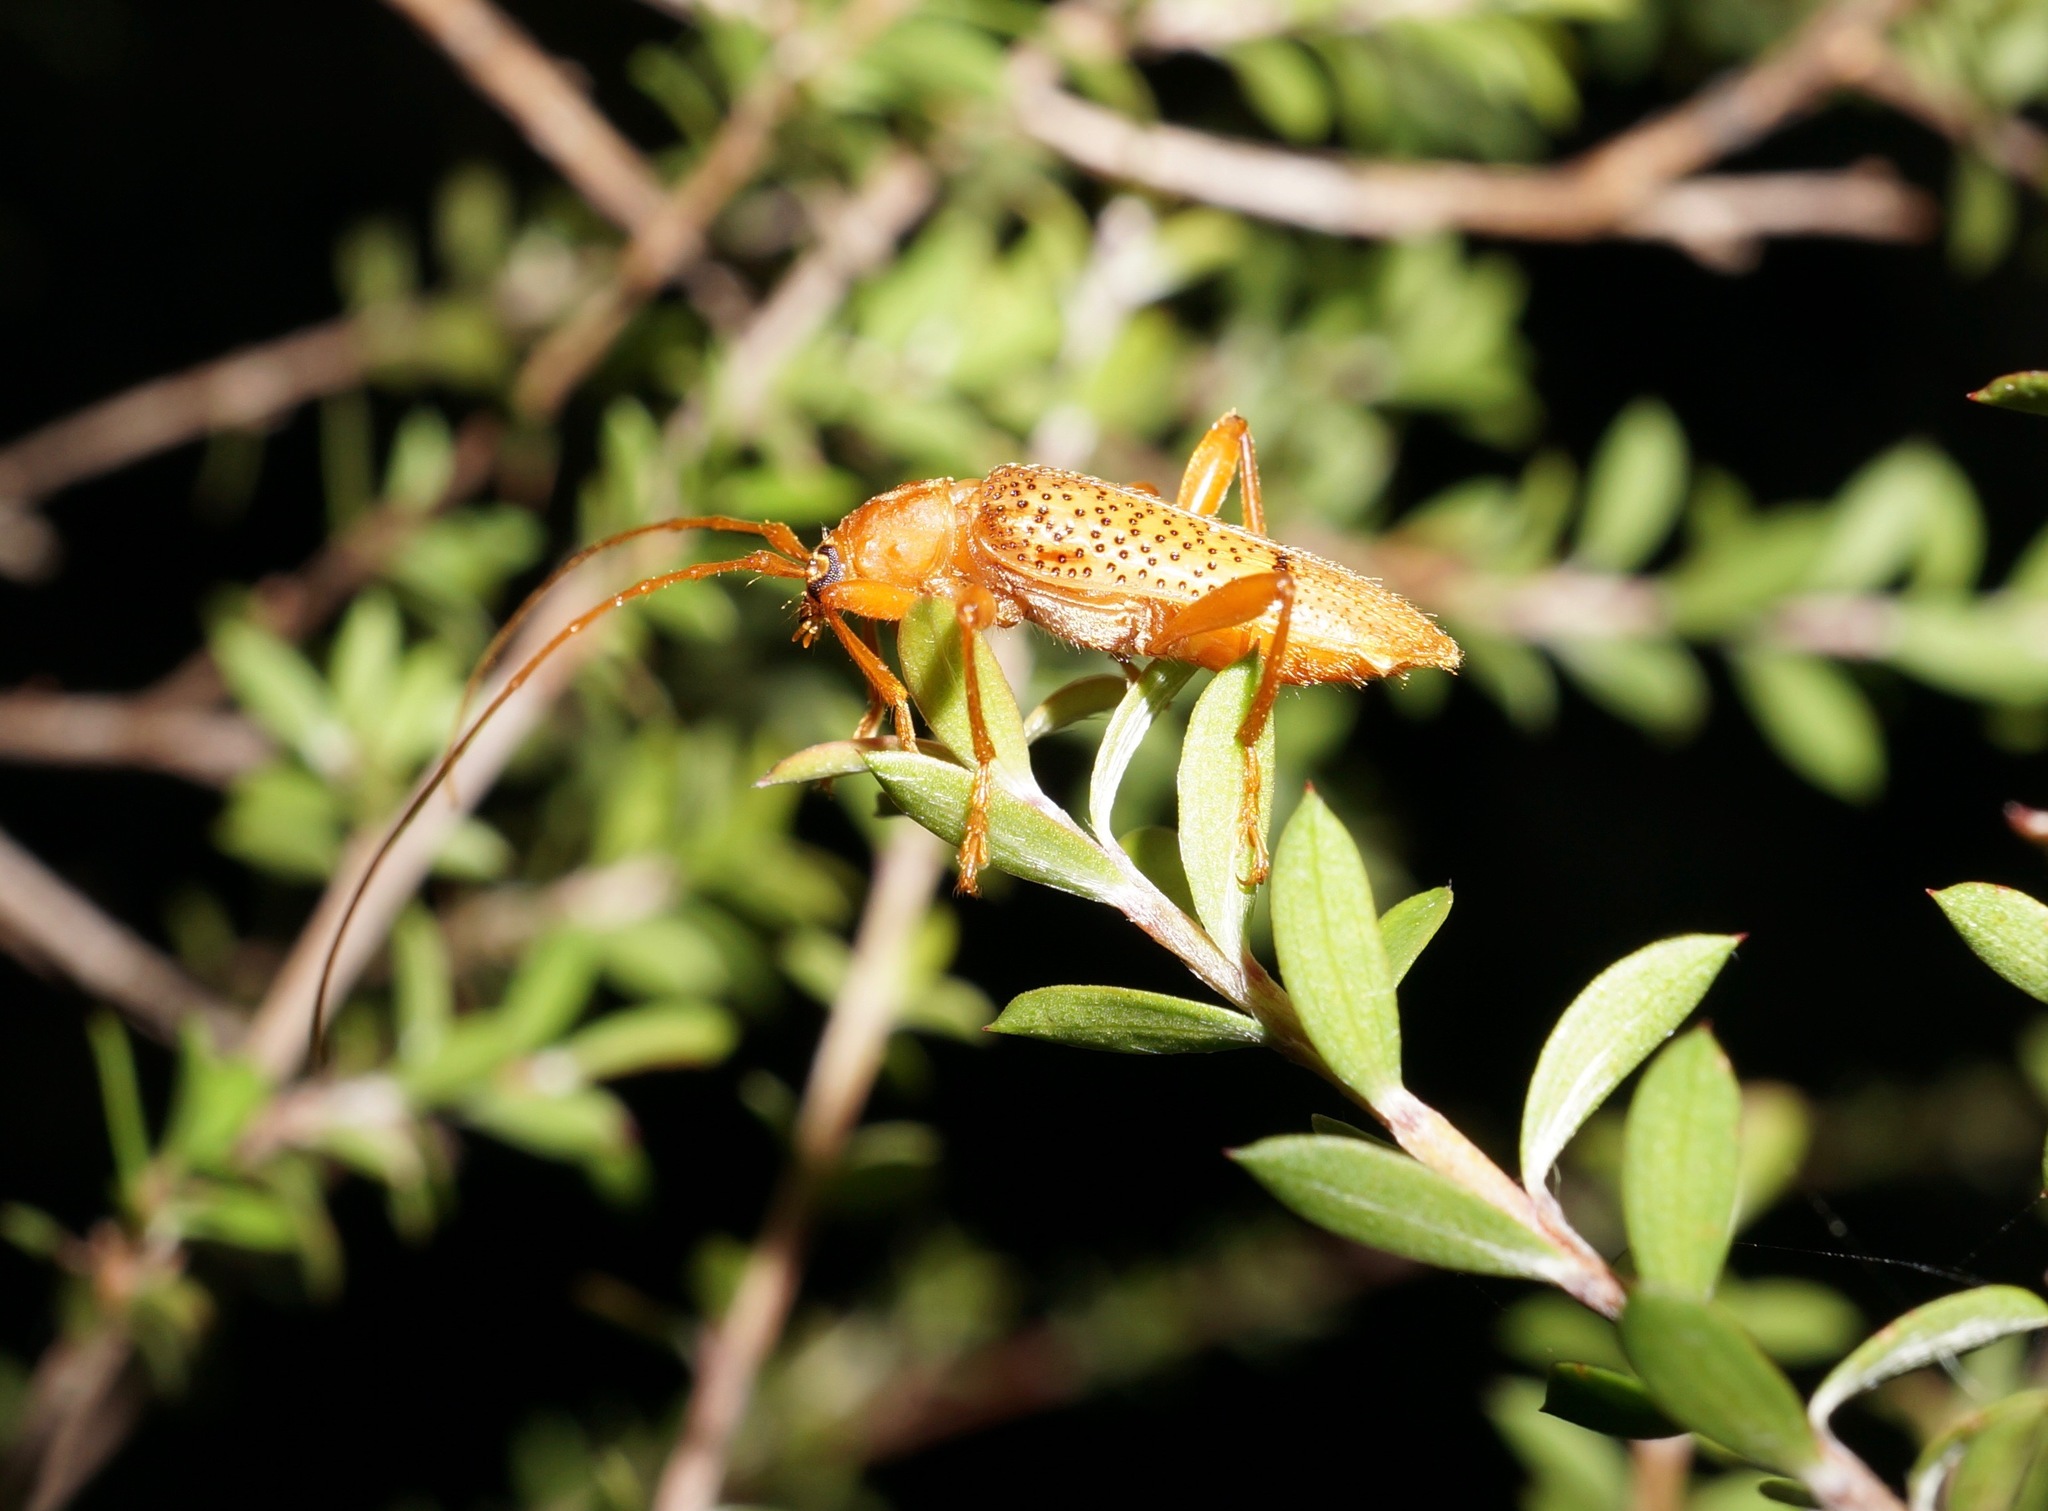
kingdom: Animalia
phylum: Arthropoda
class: Insecta
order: Coleoptera
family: Cerambycidae
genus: Xuthodes
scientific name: Xuthodes punctipennis
